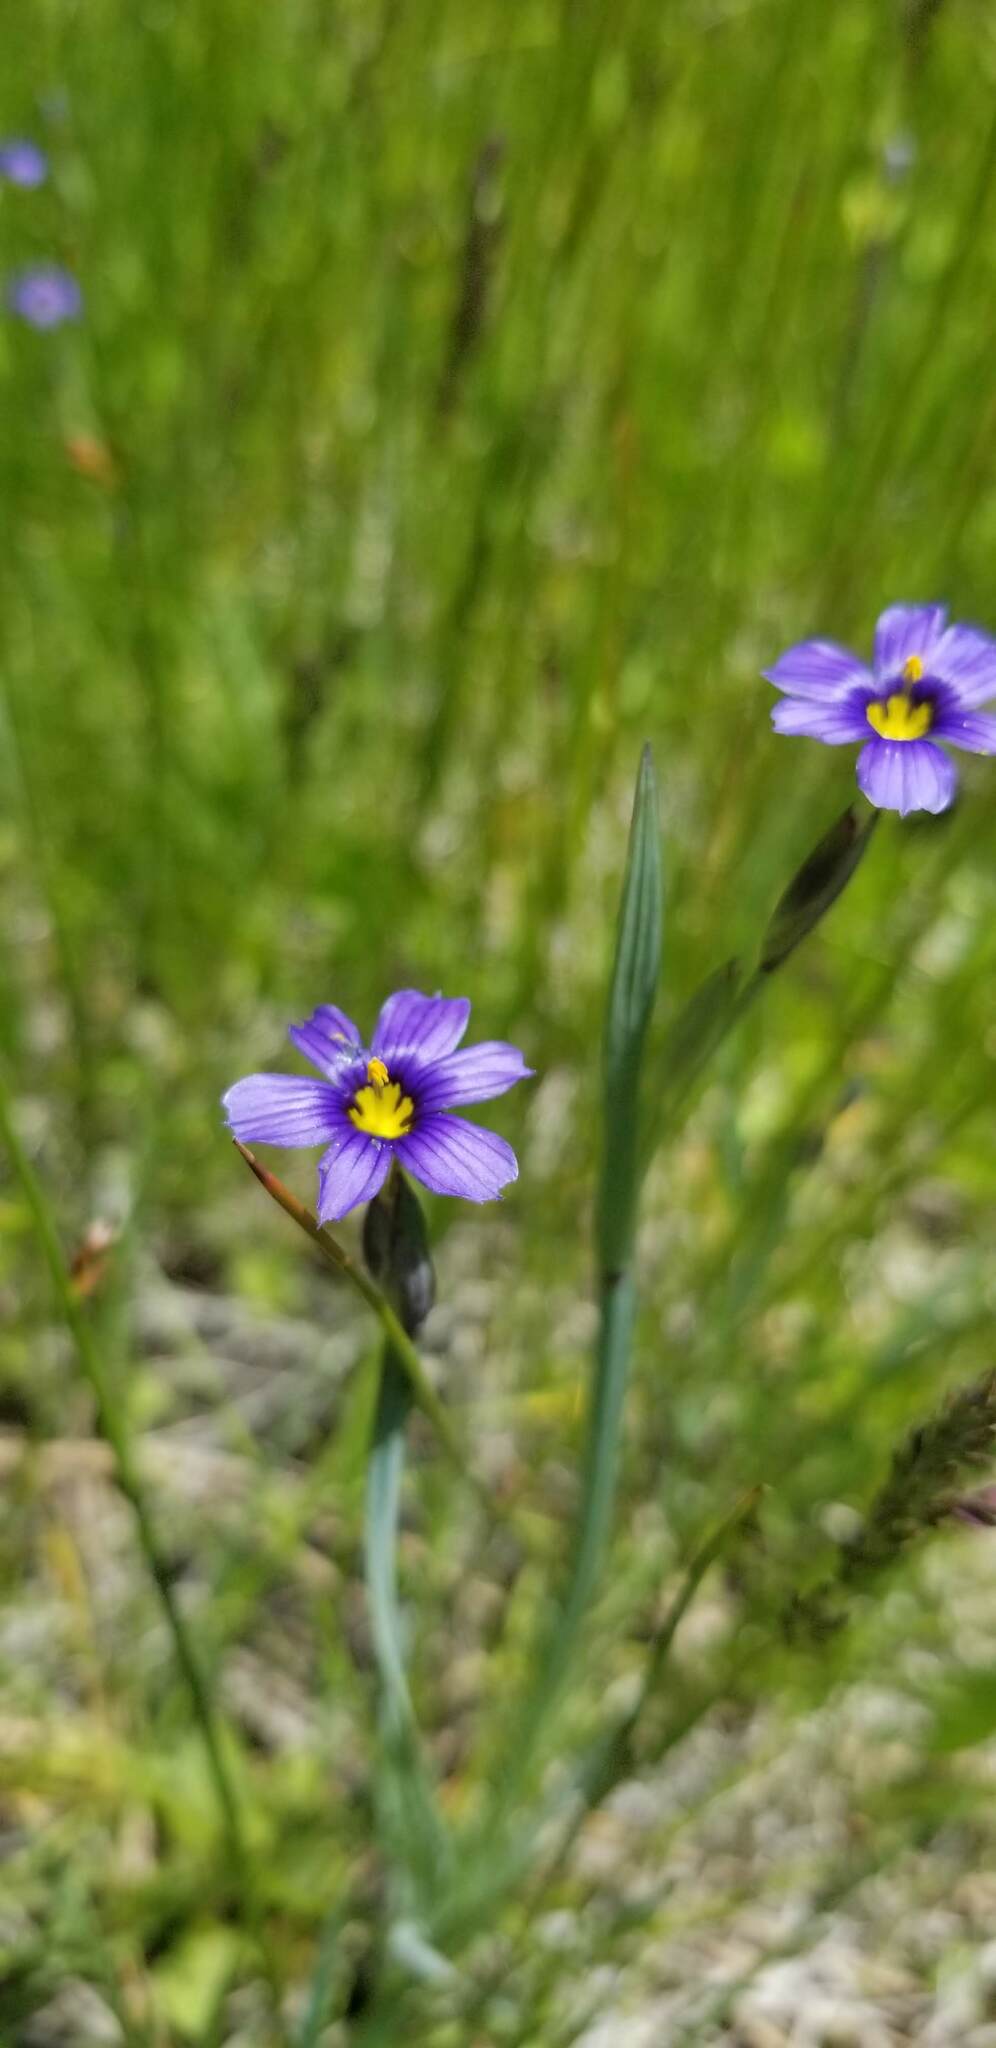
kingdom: Plantae
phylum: Tracheophyta
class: Liliopsida
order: Asparagales
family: Iridaceae
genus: Sisyrinchium
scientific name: Sisyrinchium bellum
